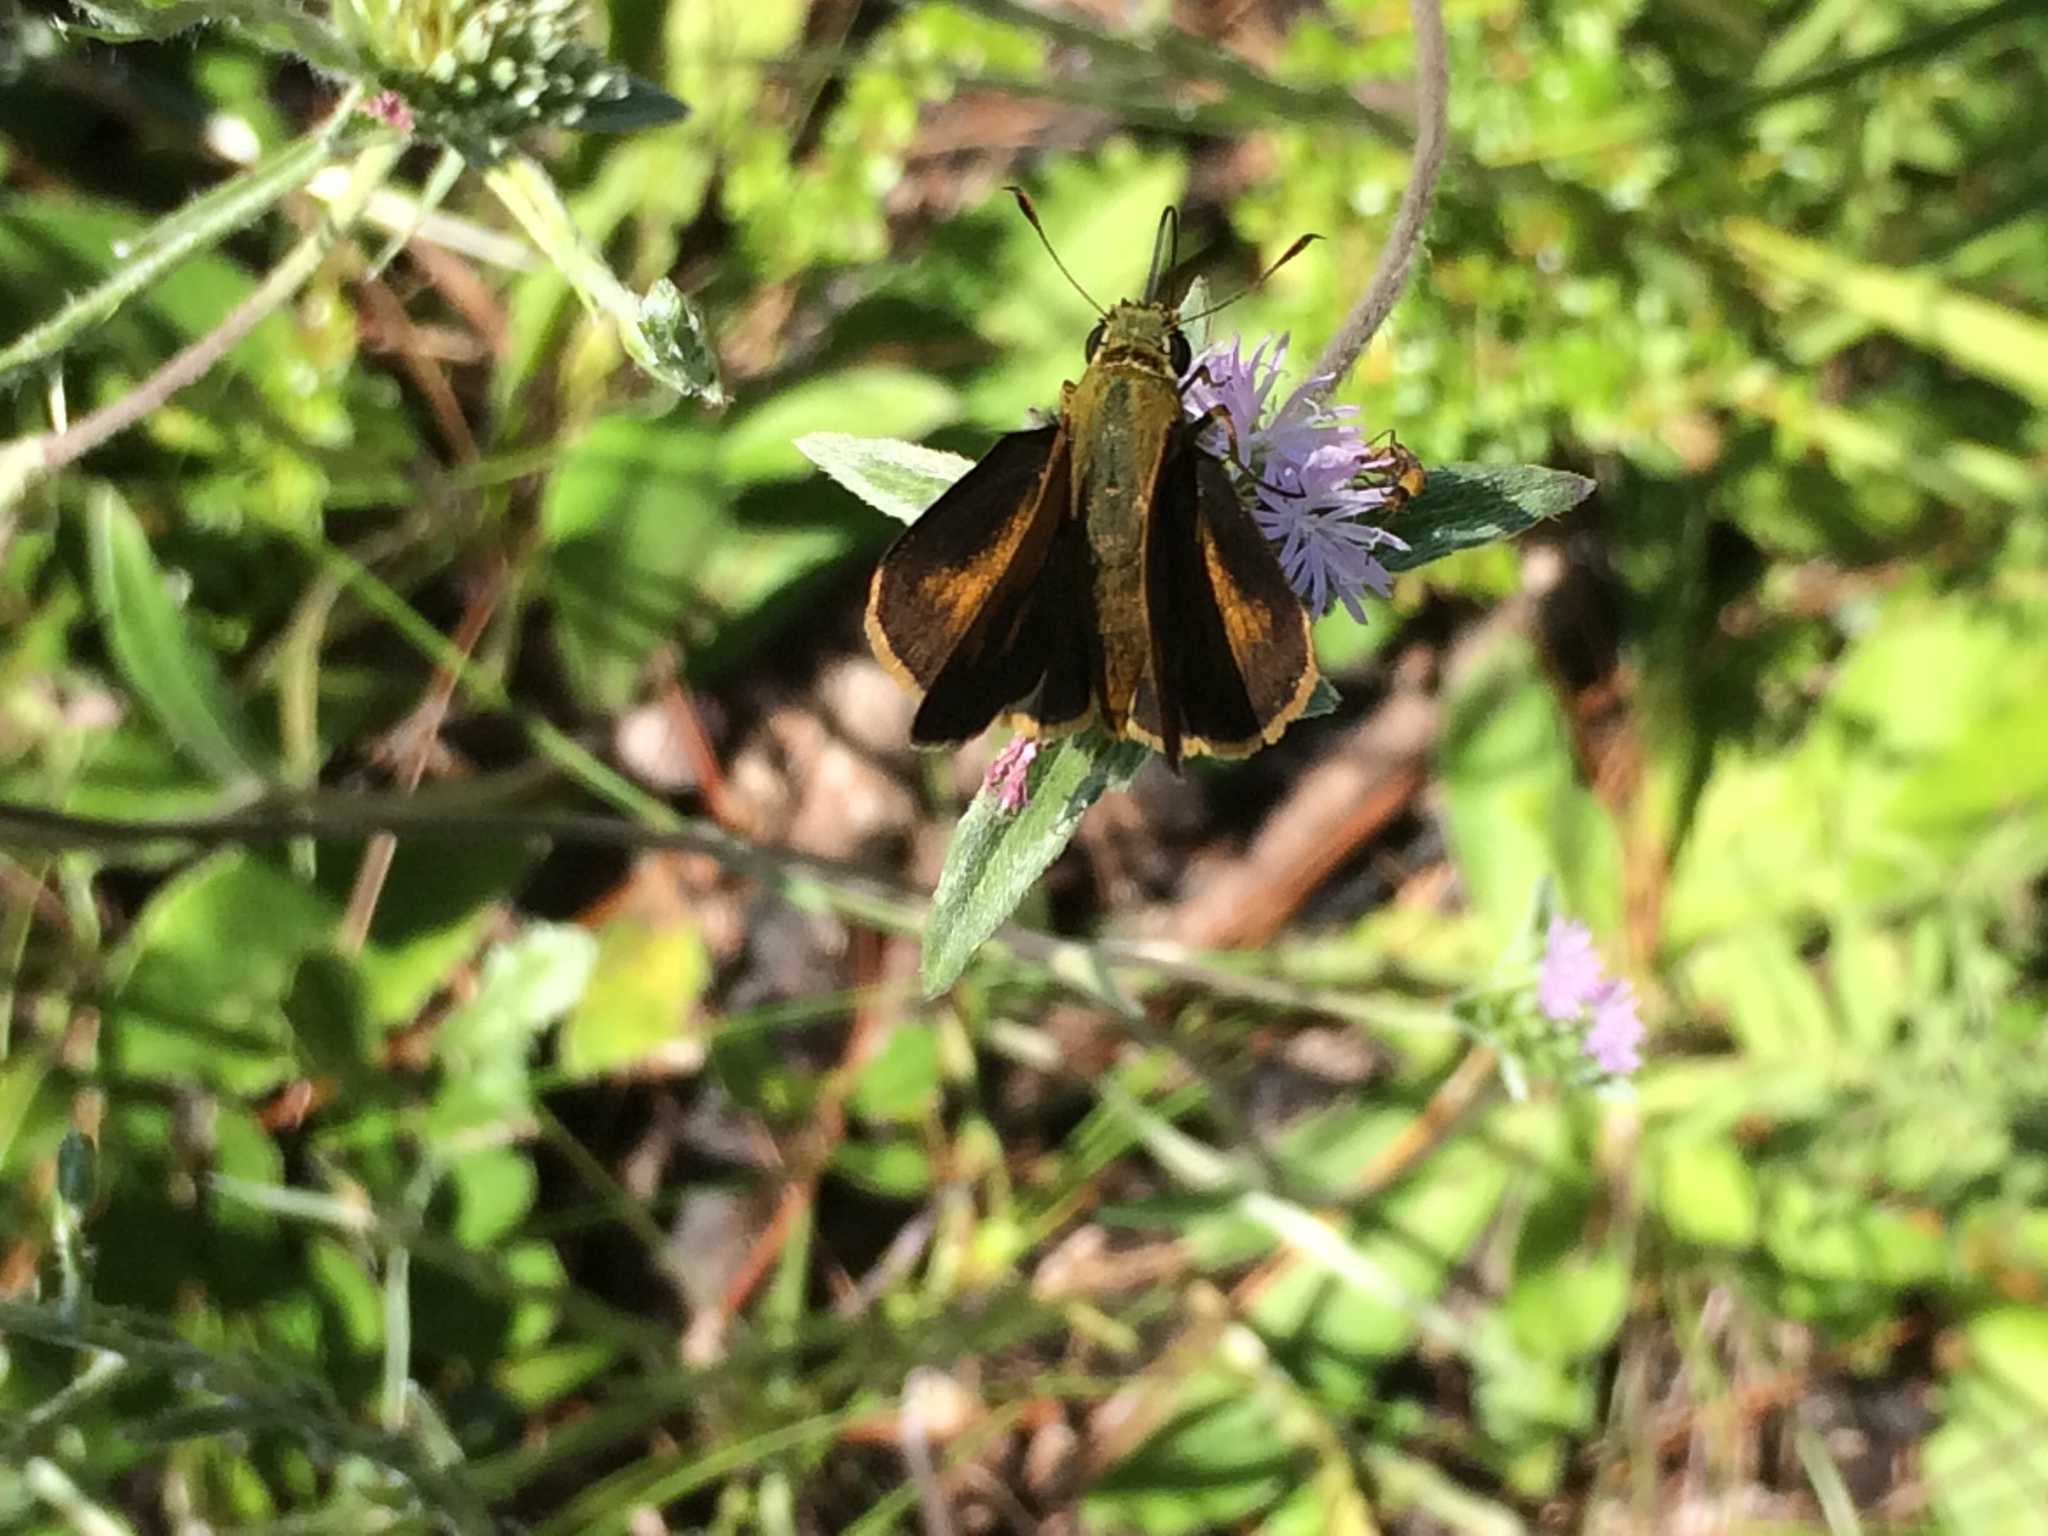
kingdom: Animalia
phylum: Arthropoda
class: Insecta
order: Lepidoptera
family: Hesperiidae
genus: Polites
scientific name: Polites otho
